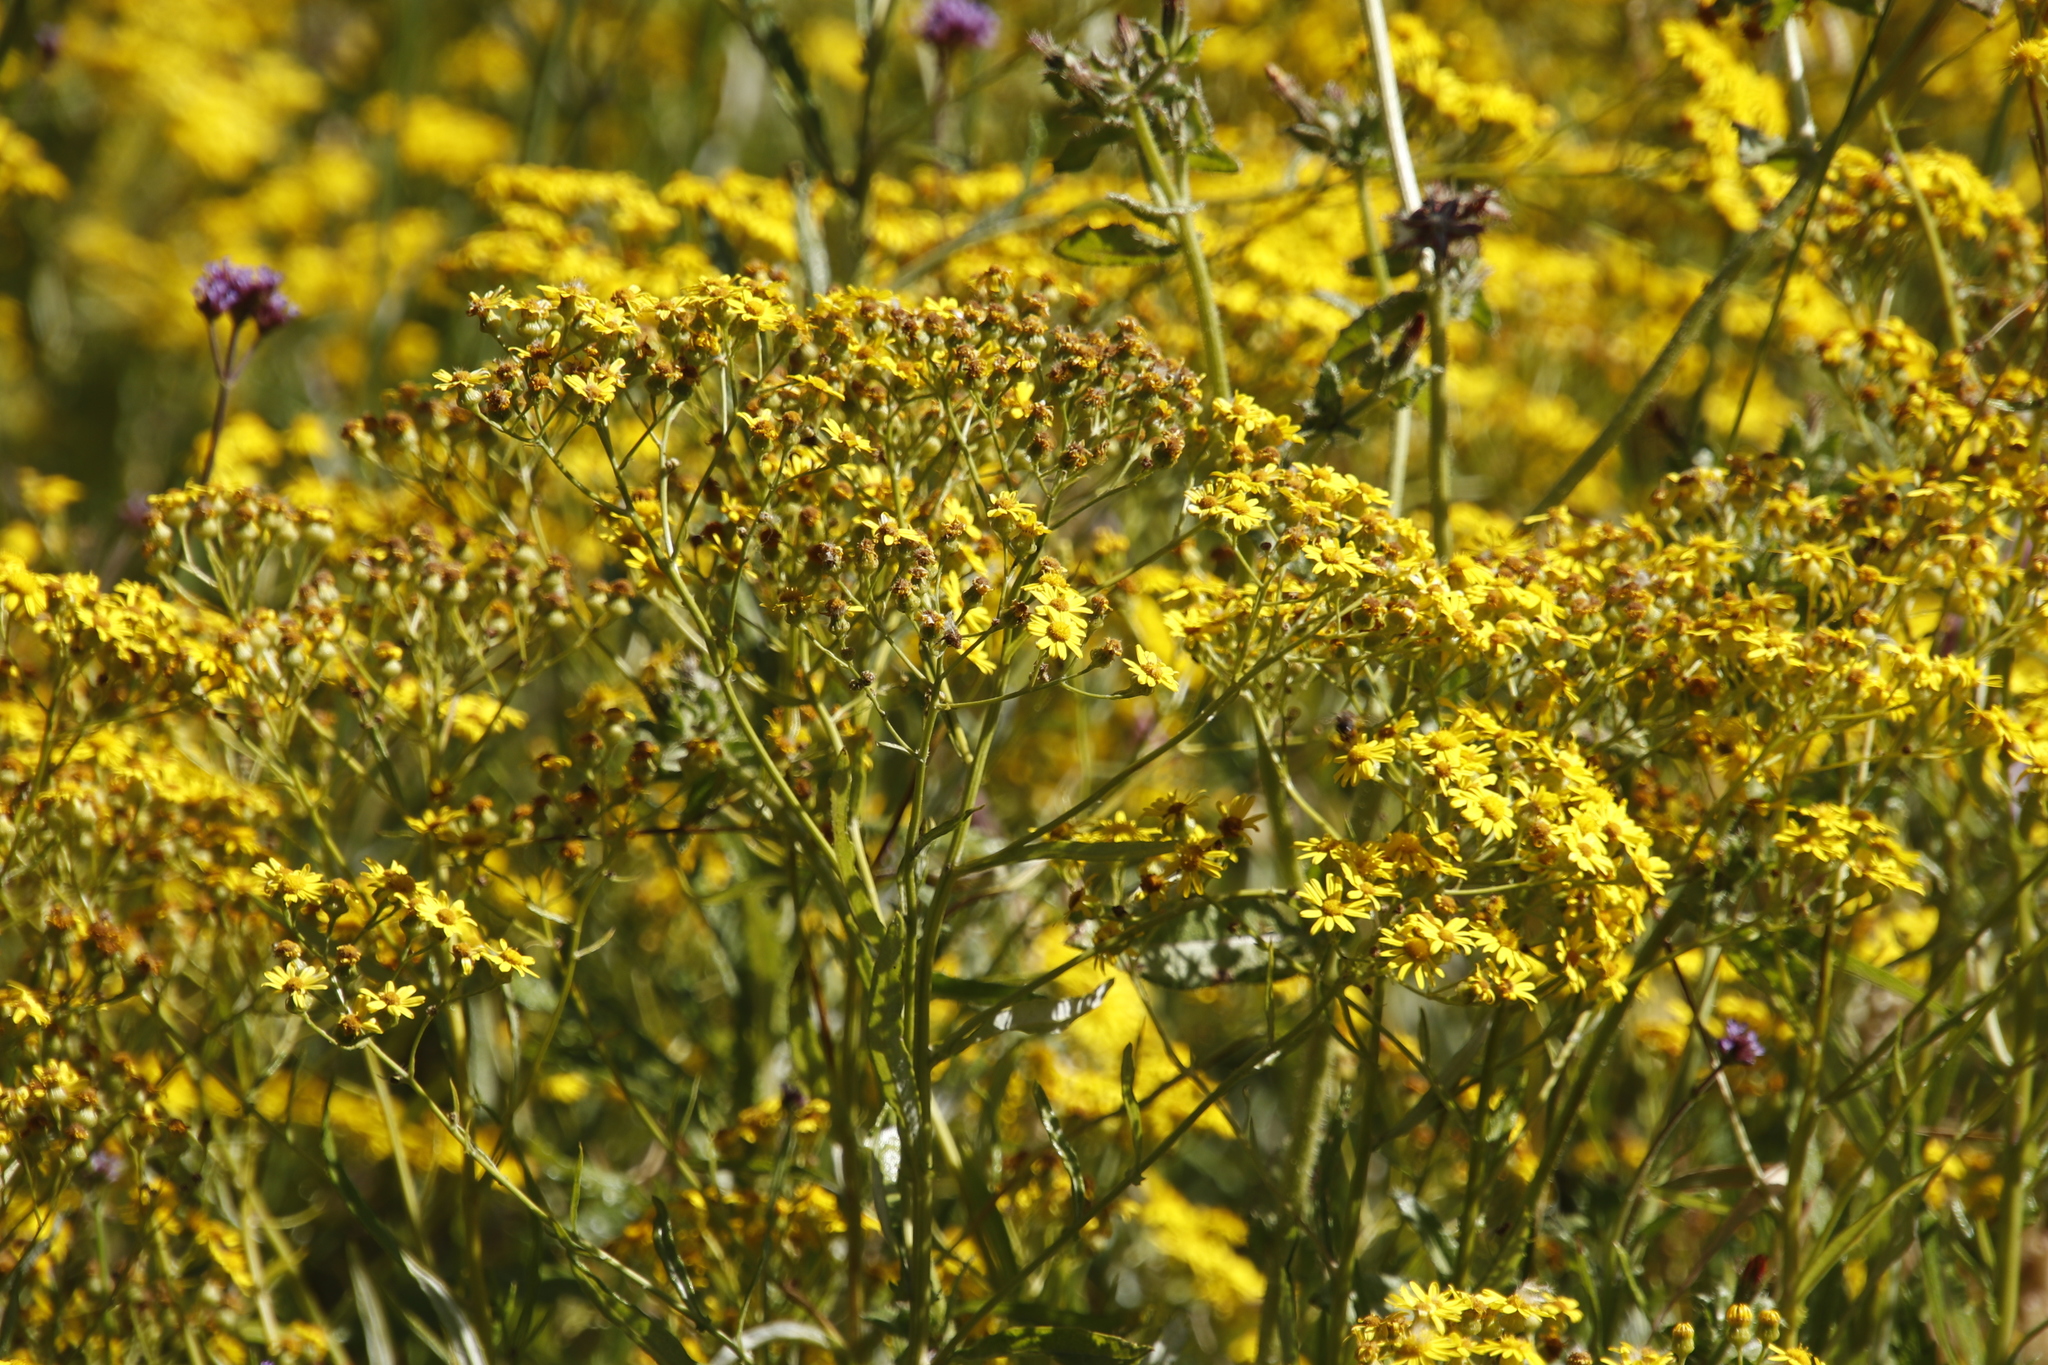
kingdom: Plantae
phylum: Tracheophyta
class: Magnoliopsida
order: Asterales
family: Asteraceae
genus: Senecio
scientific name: Senecio pterophorus
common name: Shoddy ragwort
